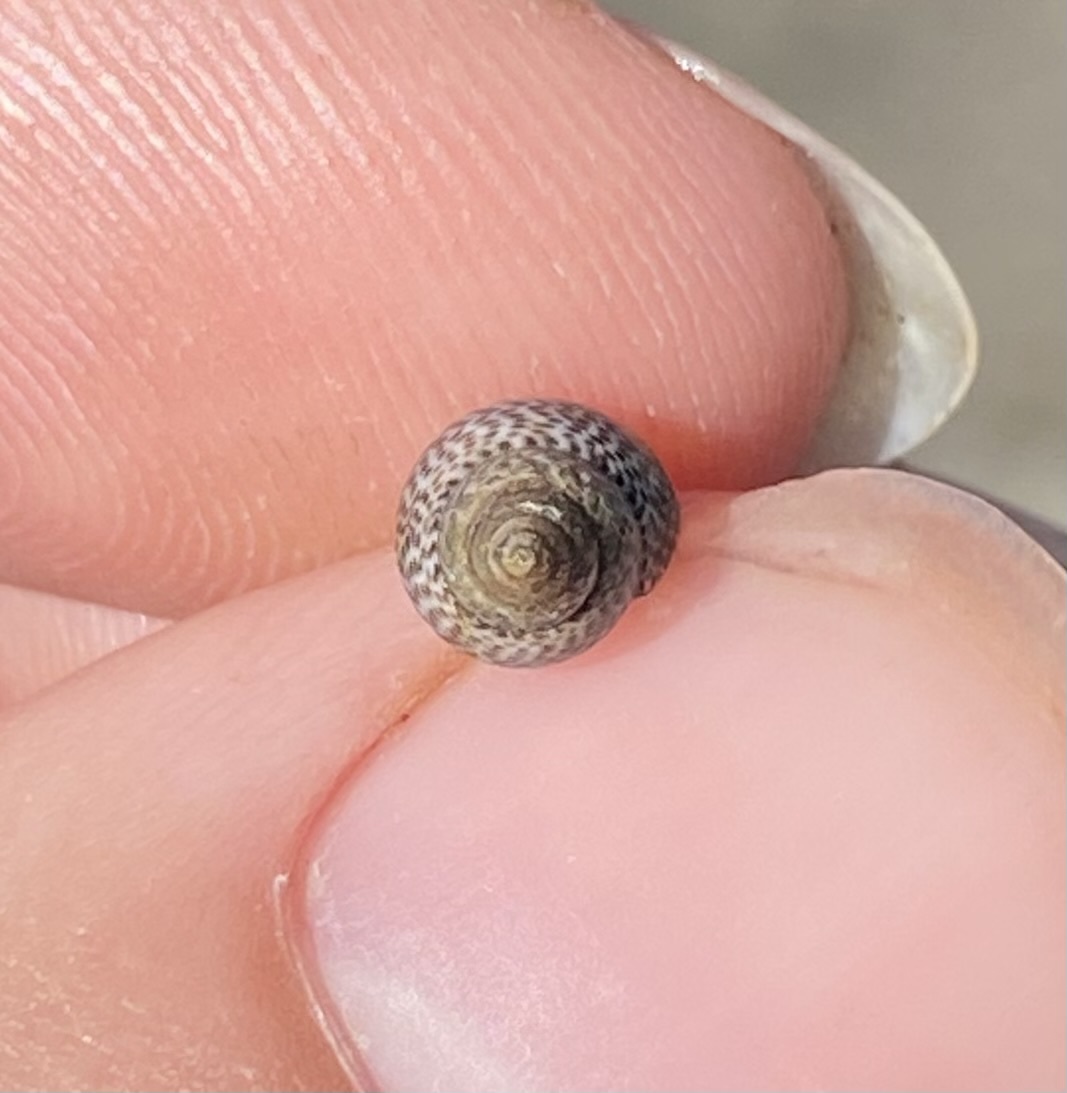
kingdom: Animalia
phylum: Mollusca
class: Gastropoda
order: Littorinimorpha
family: Littorinidae
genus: Littoraria
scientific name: Littoraria pintado
